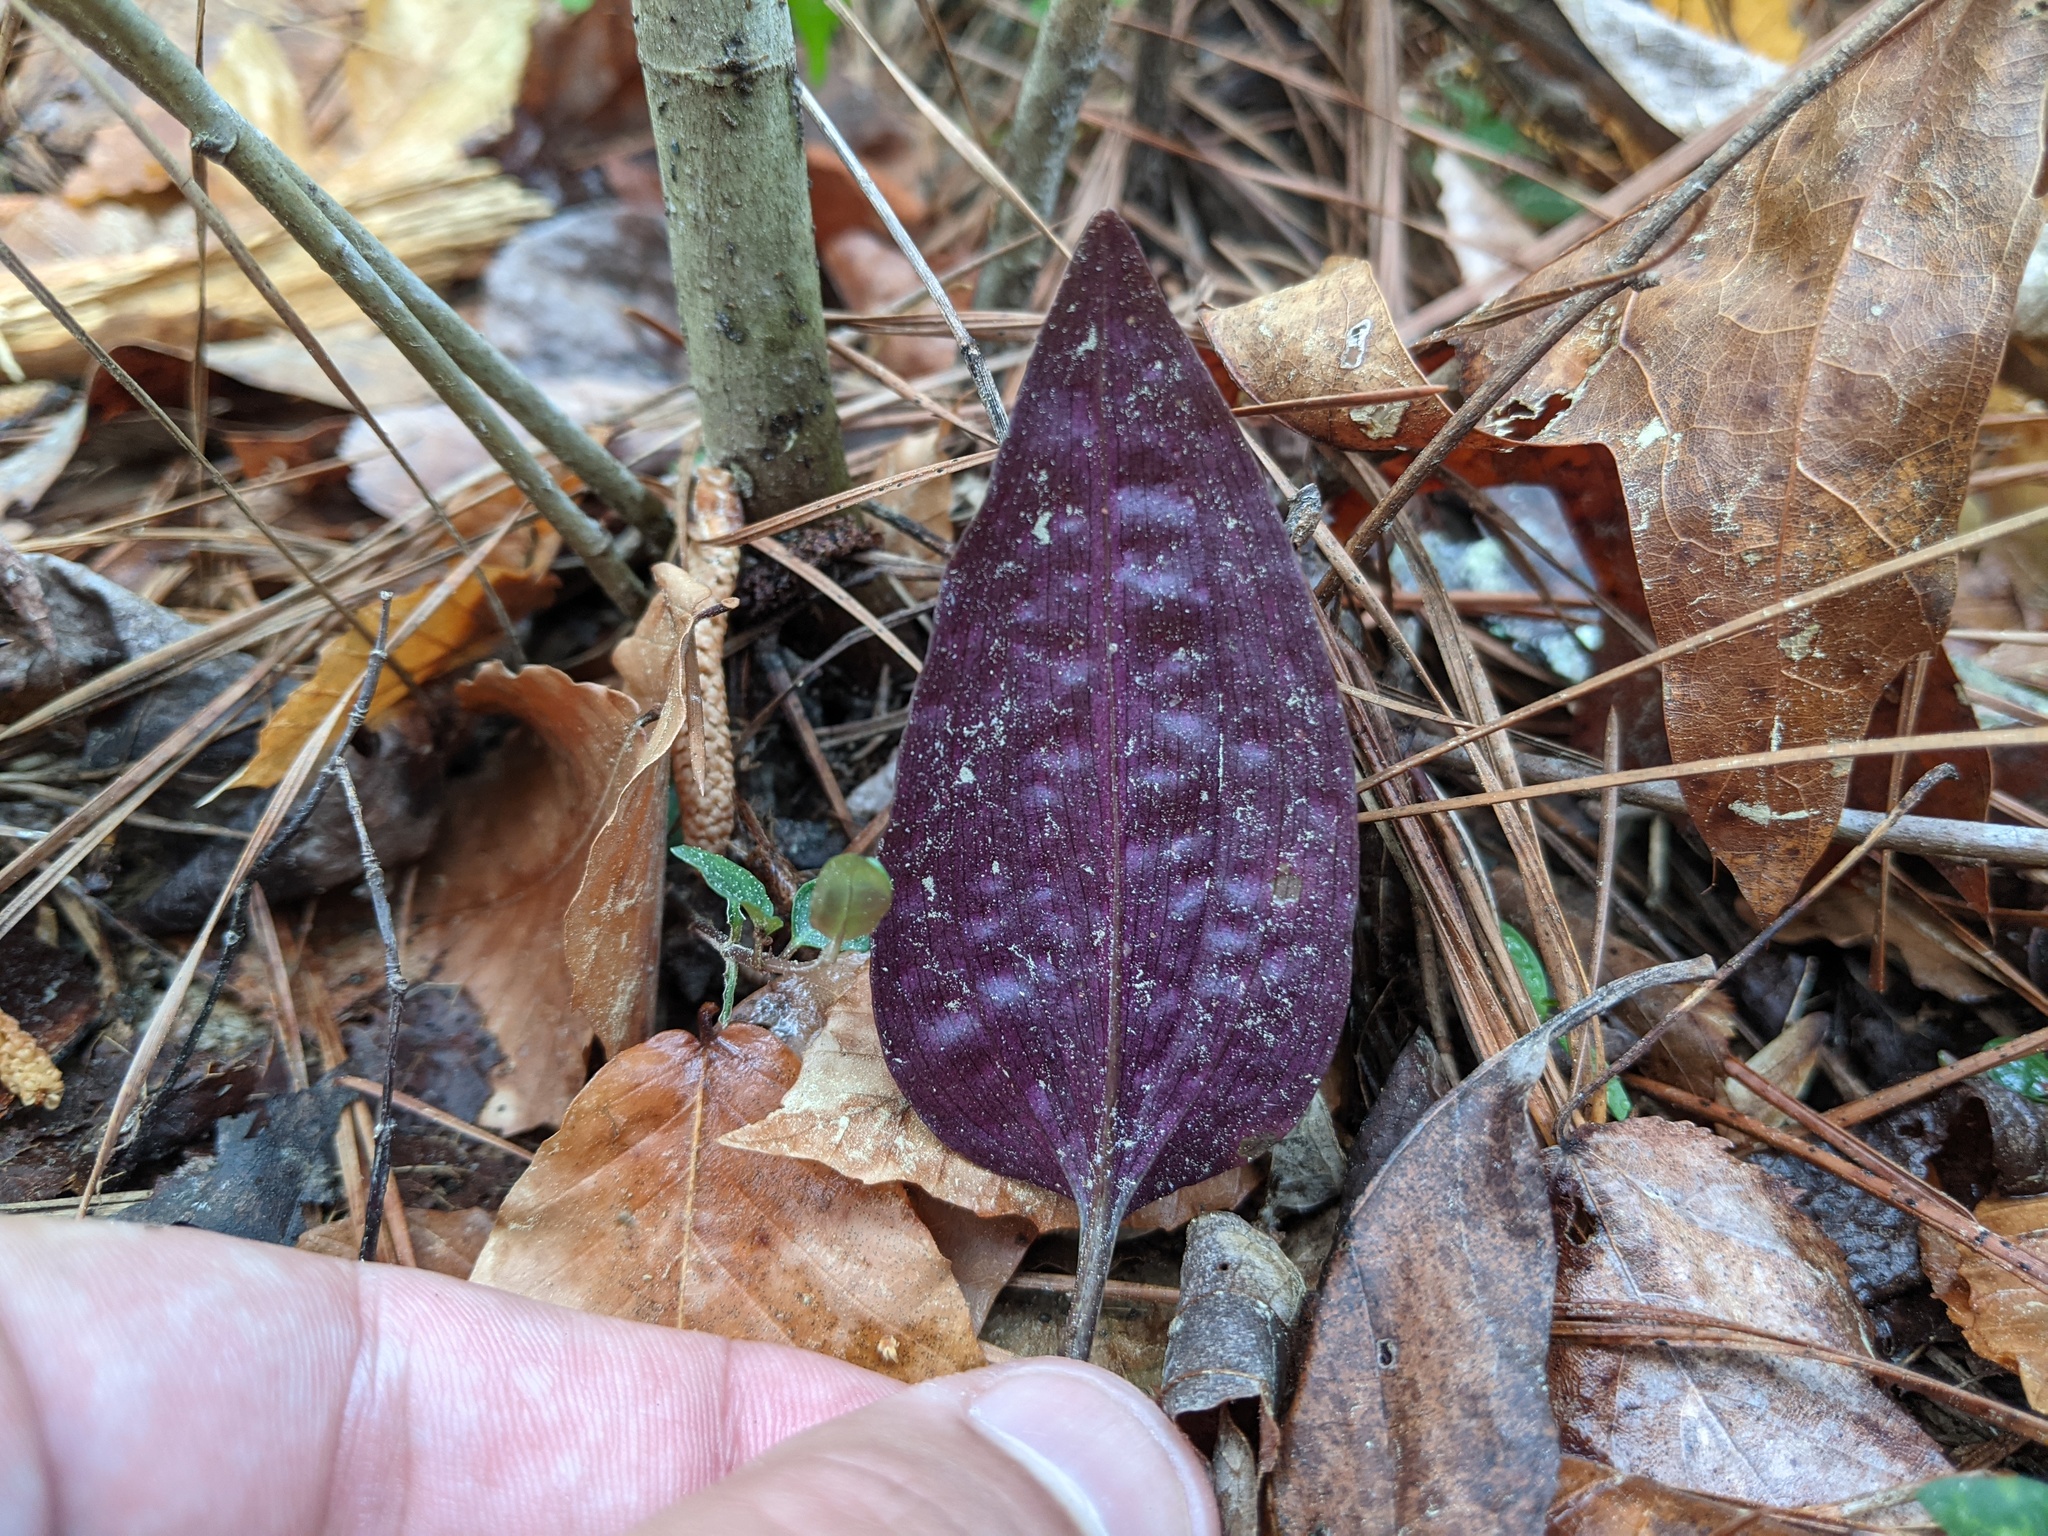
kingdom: Plantae
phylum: Tracheophyta
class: Liliopsida
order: Asparagales
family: Orchidaceae
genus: Tipularia
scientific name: Tipularia discolor
